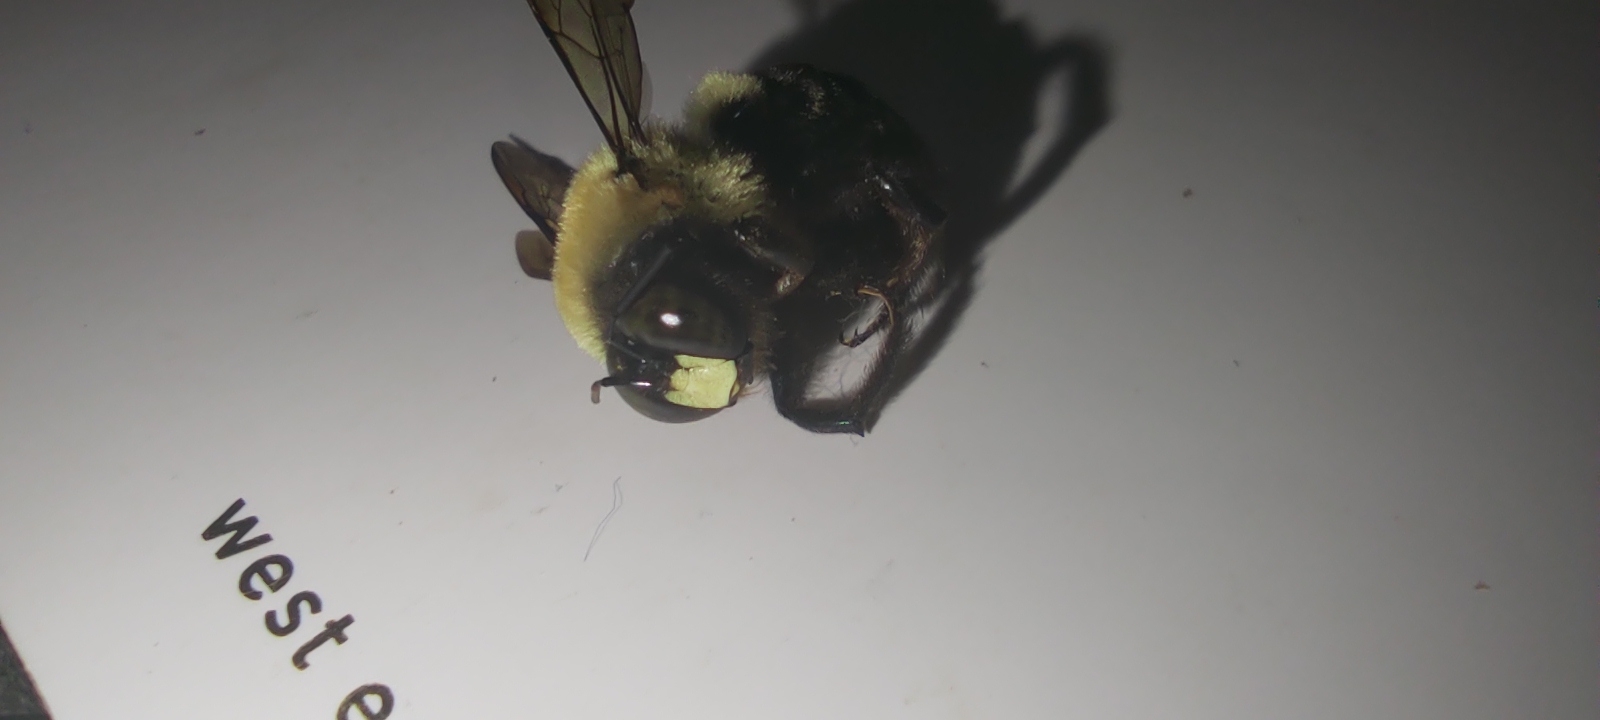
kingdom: Animalia
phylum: Arthropoda
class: Insecta
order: Hymenoptera
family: Apidae
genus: Xylocopa
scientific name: Xylocopa virginica
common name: Carpenter bee
